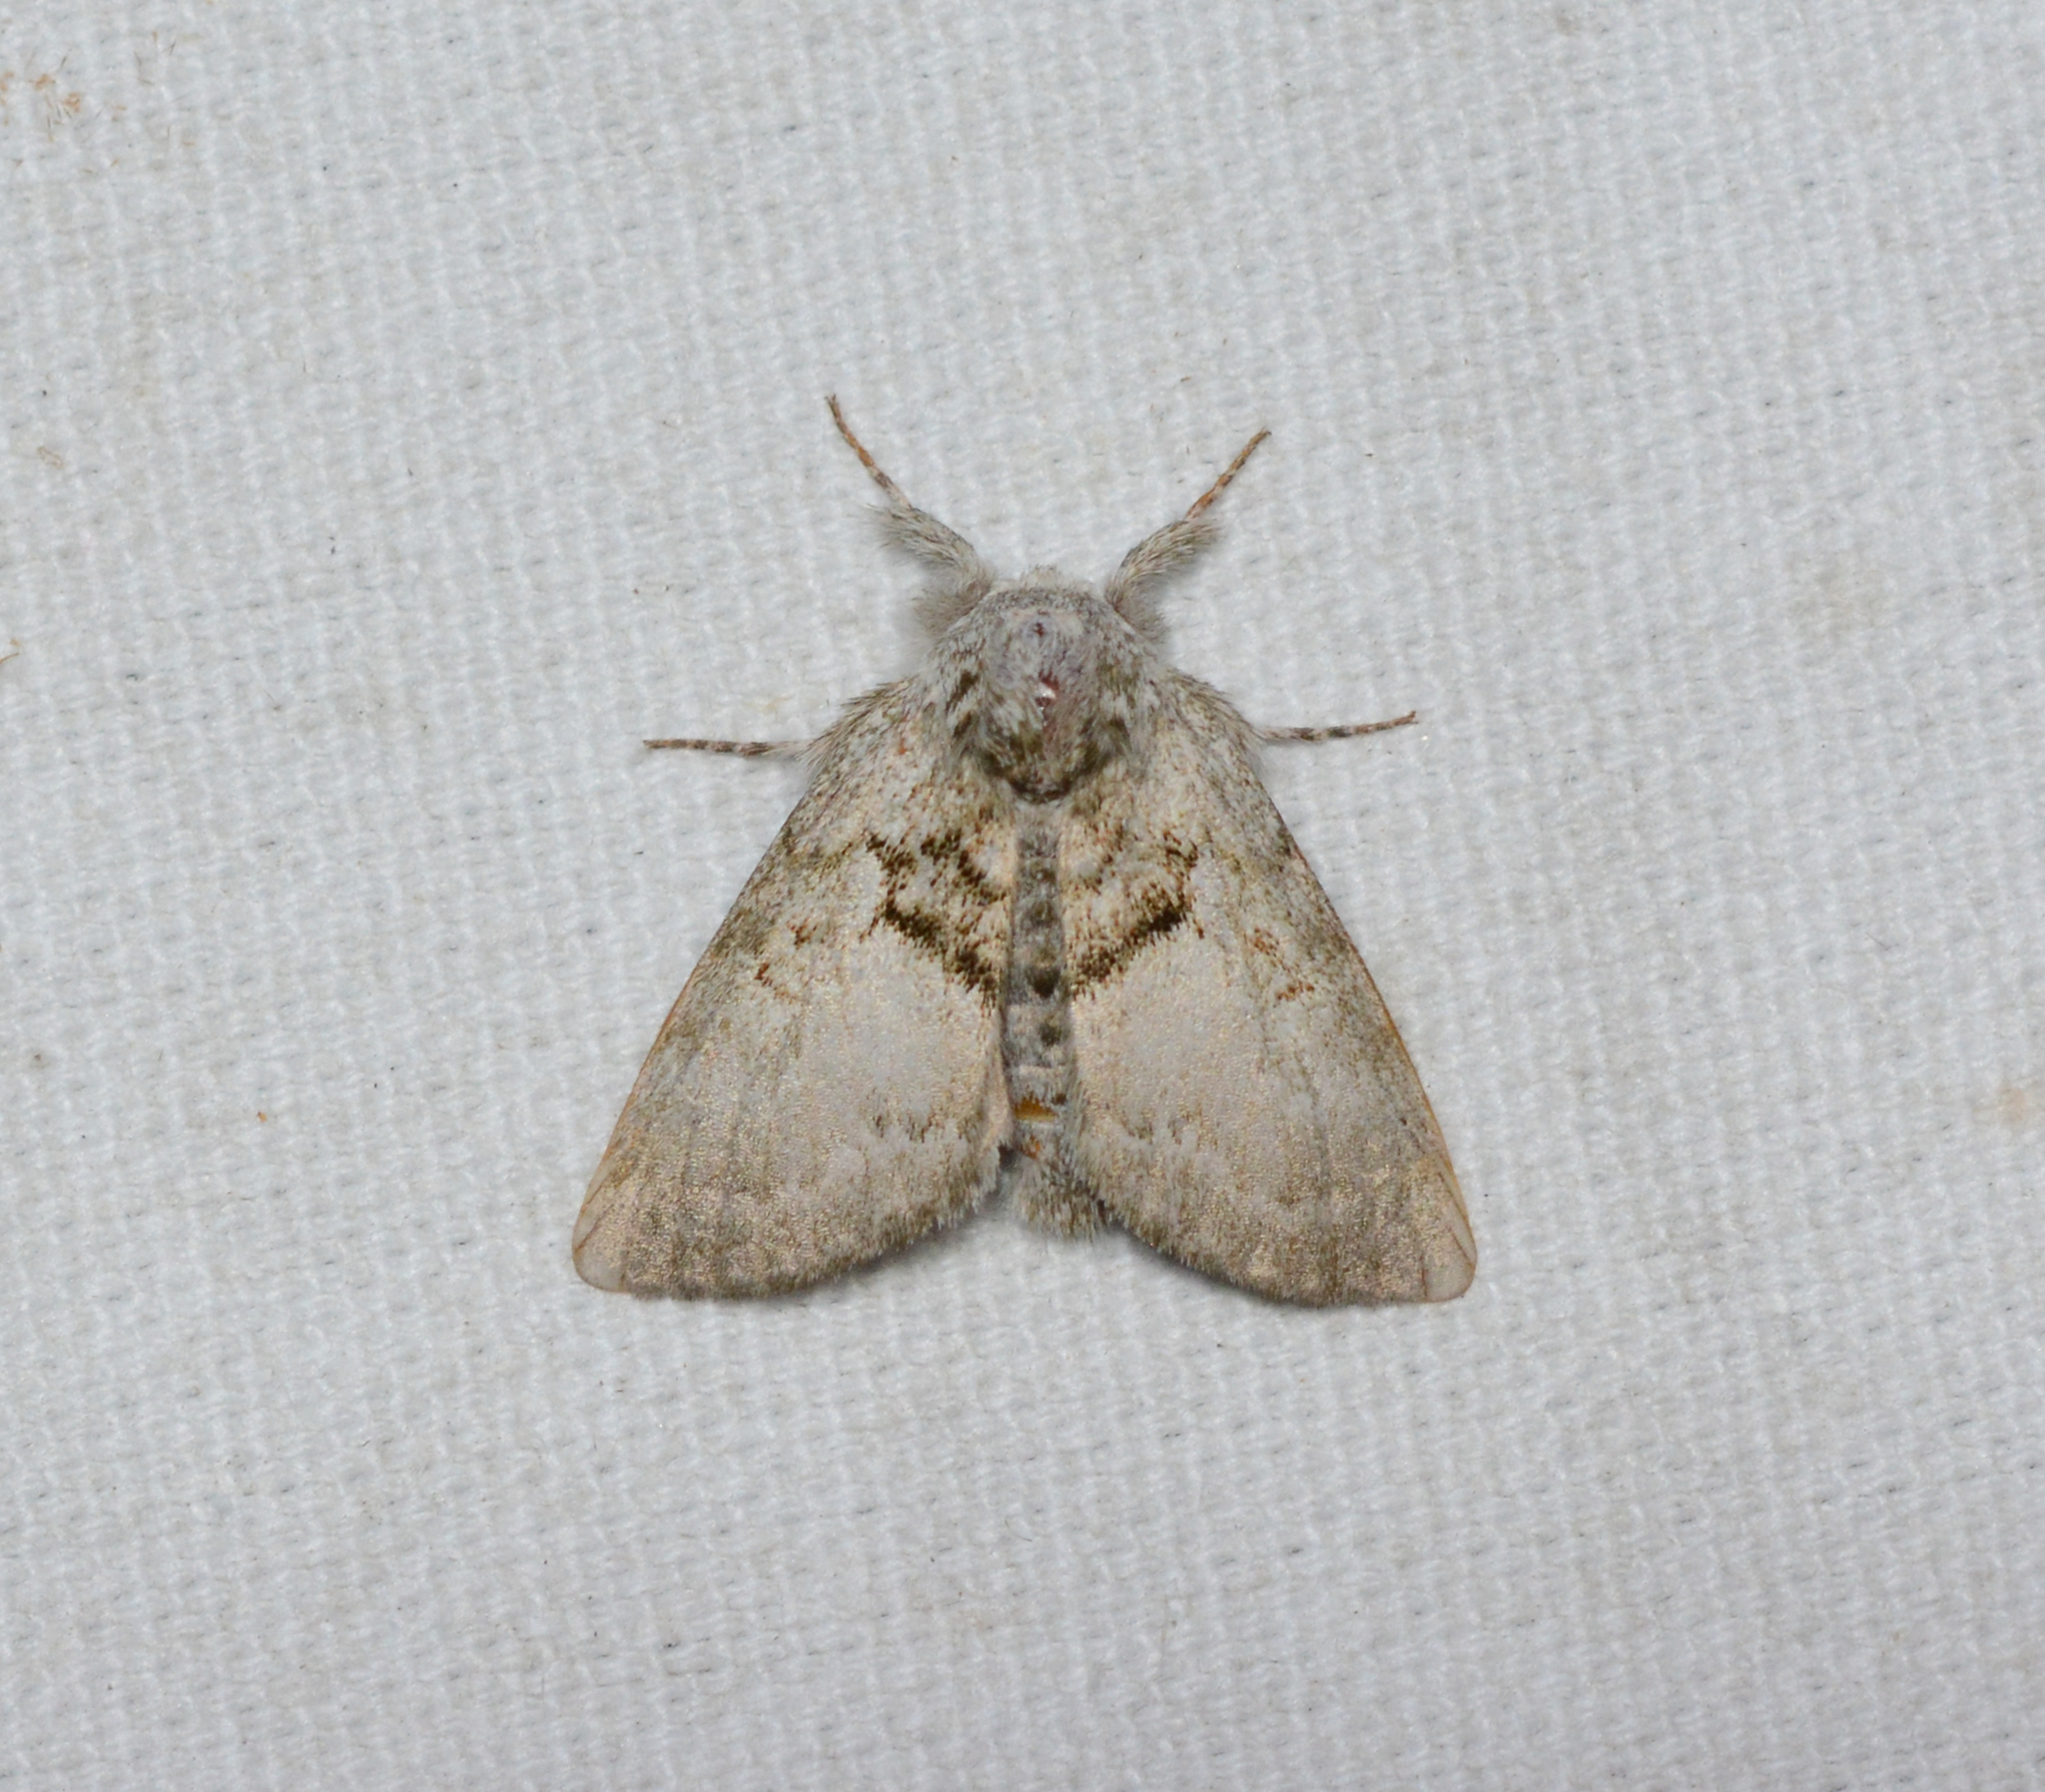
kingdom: Animalia
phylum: Arthropoda
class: Insecta
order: Lepidoptera
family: Noctuidae
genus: Colocasia
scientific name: Colocasia flavicornis
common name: Saddled yellowhorn
